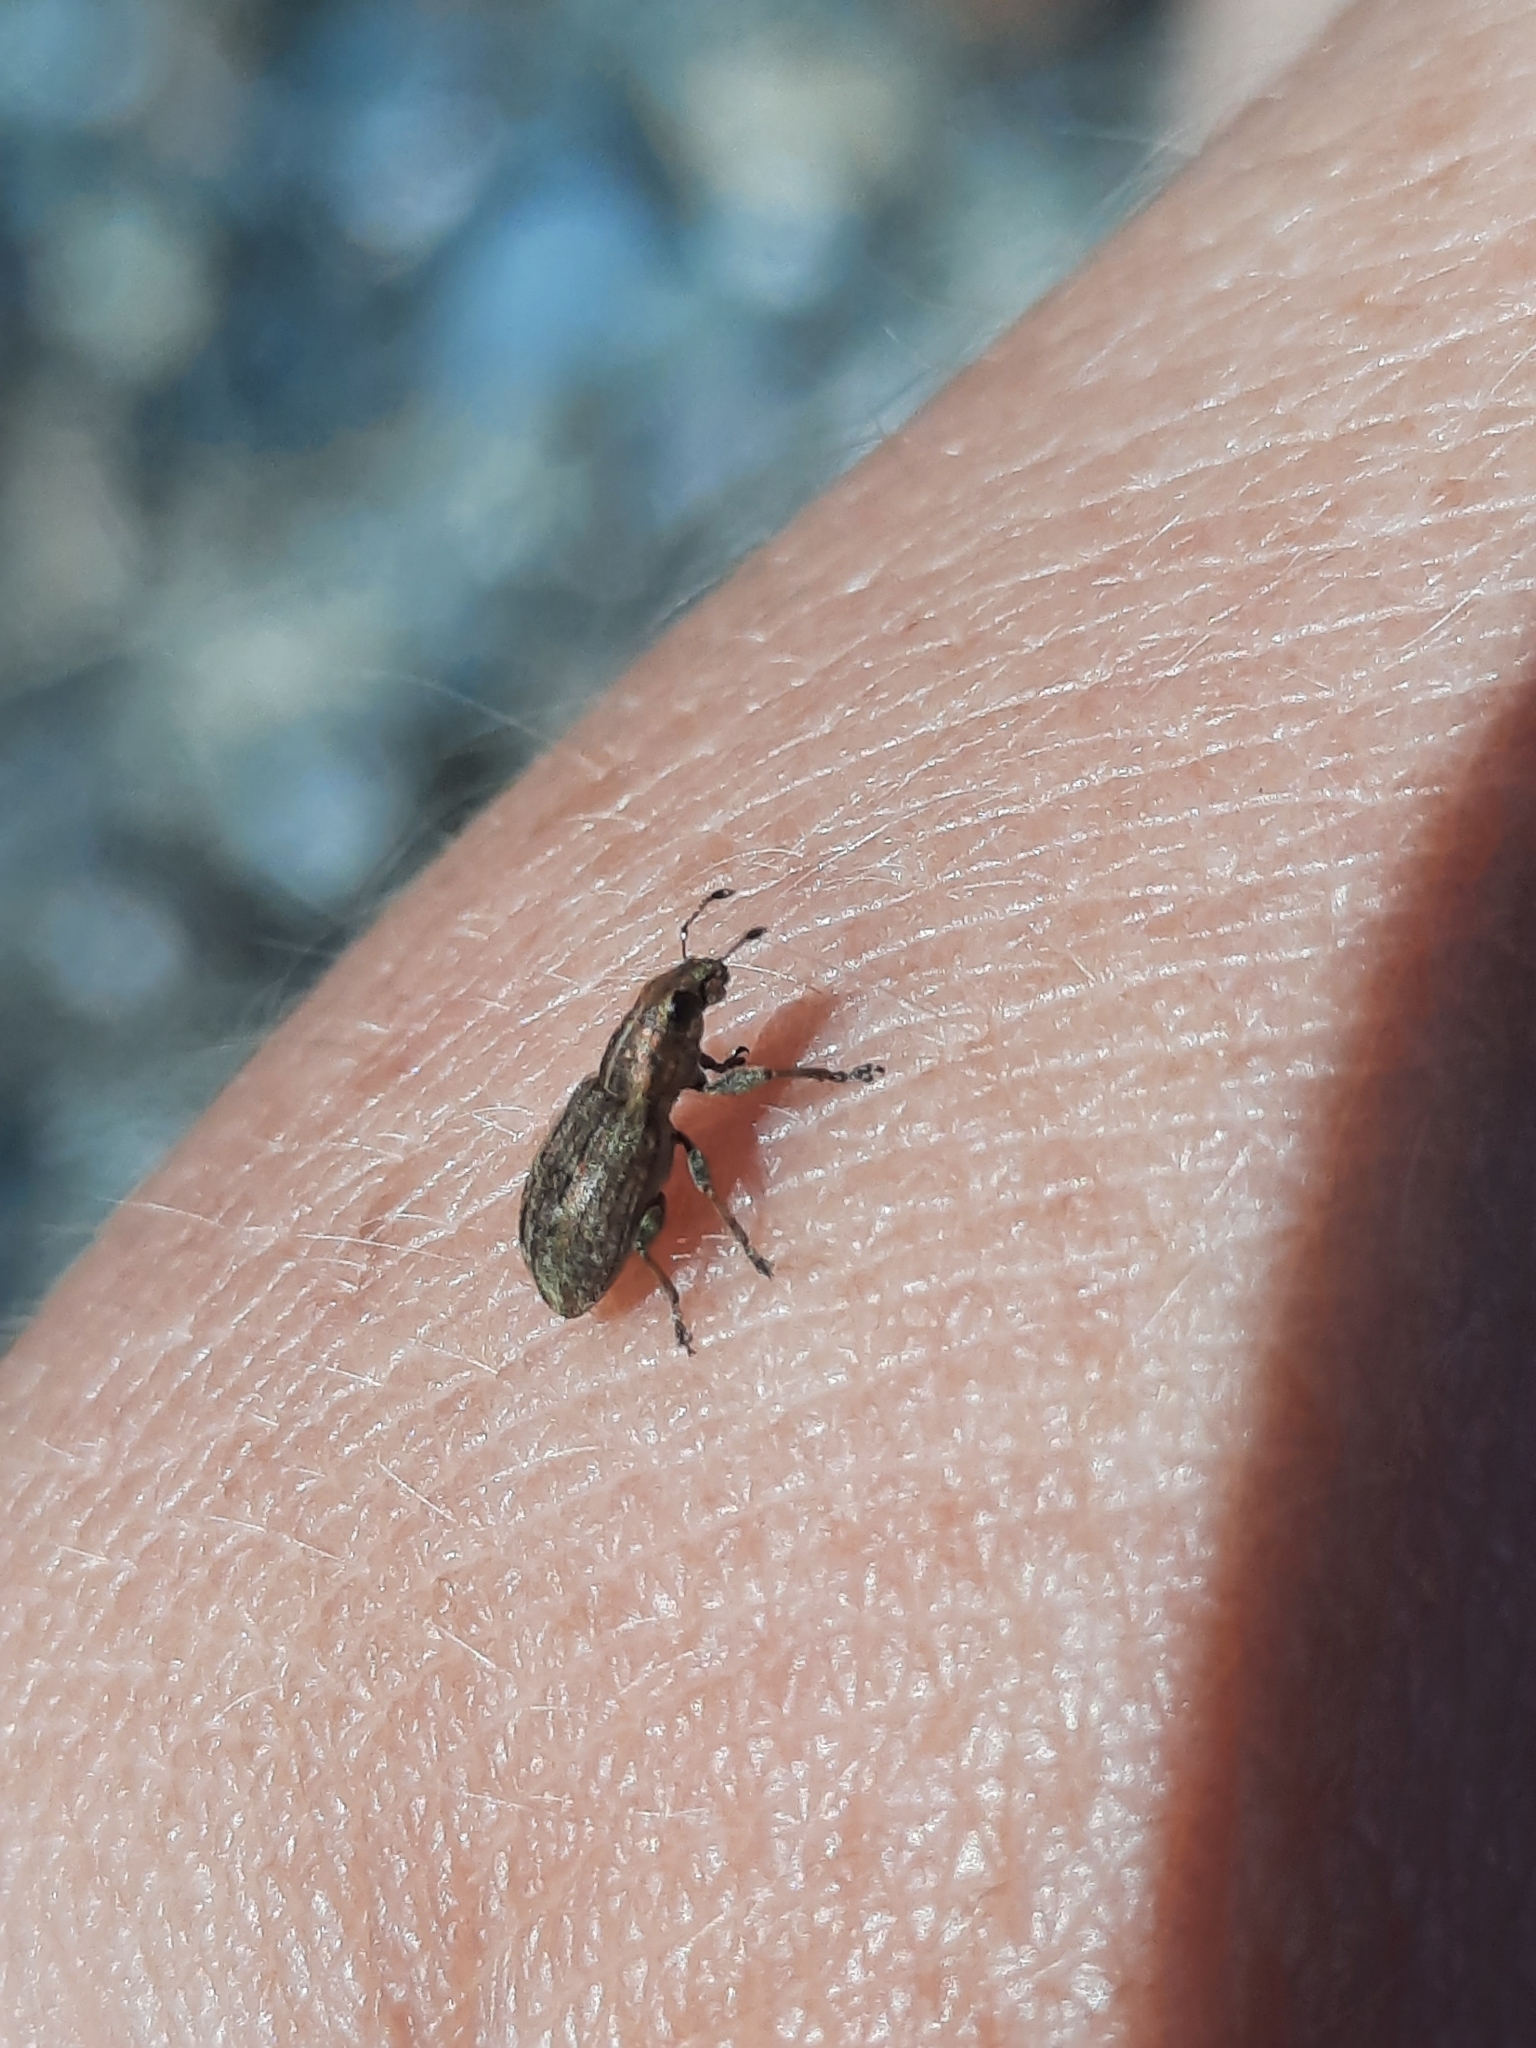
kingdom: Animalia
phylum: Arthropoda
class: Insecta
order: Coleoptera
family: Curculionidae
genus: Sitona
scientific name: Sitona obsoletus
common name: Weevil
